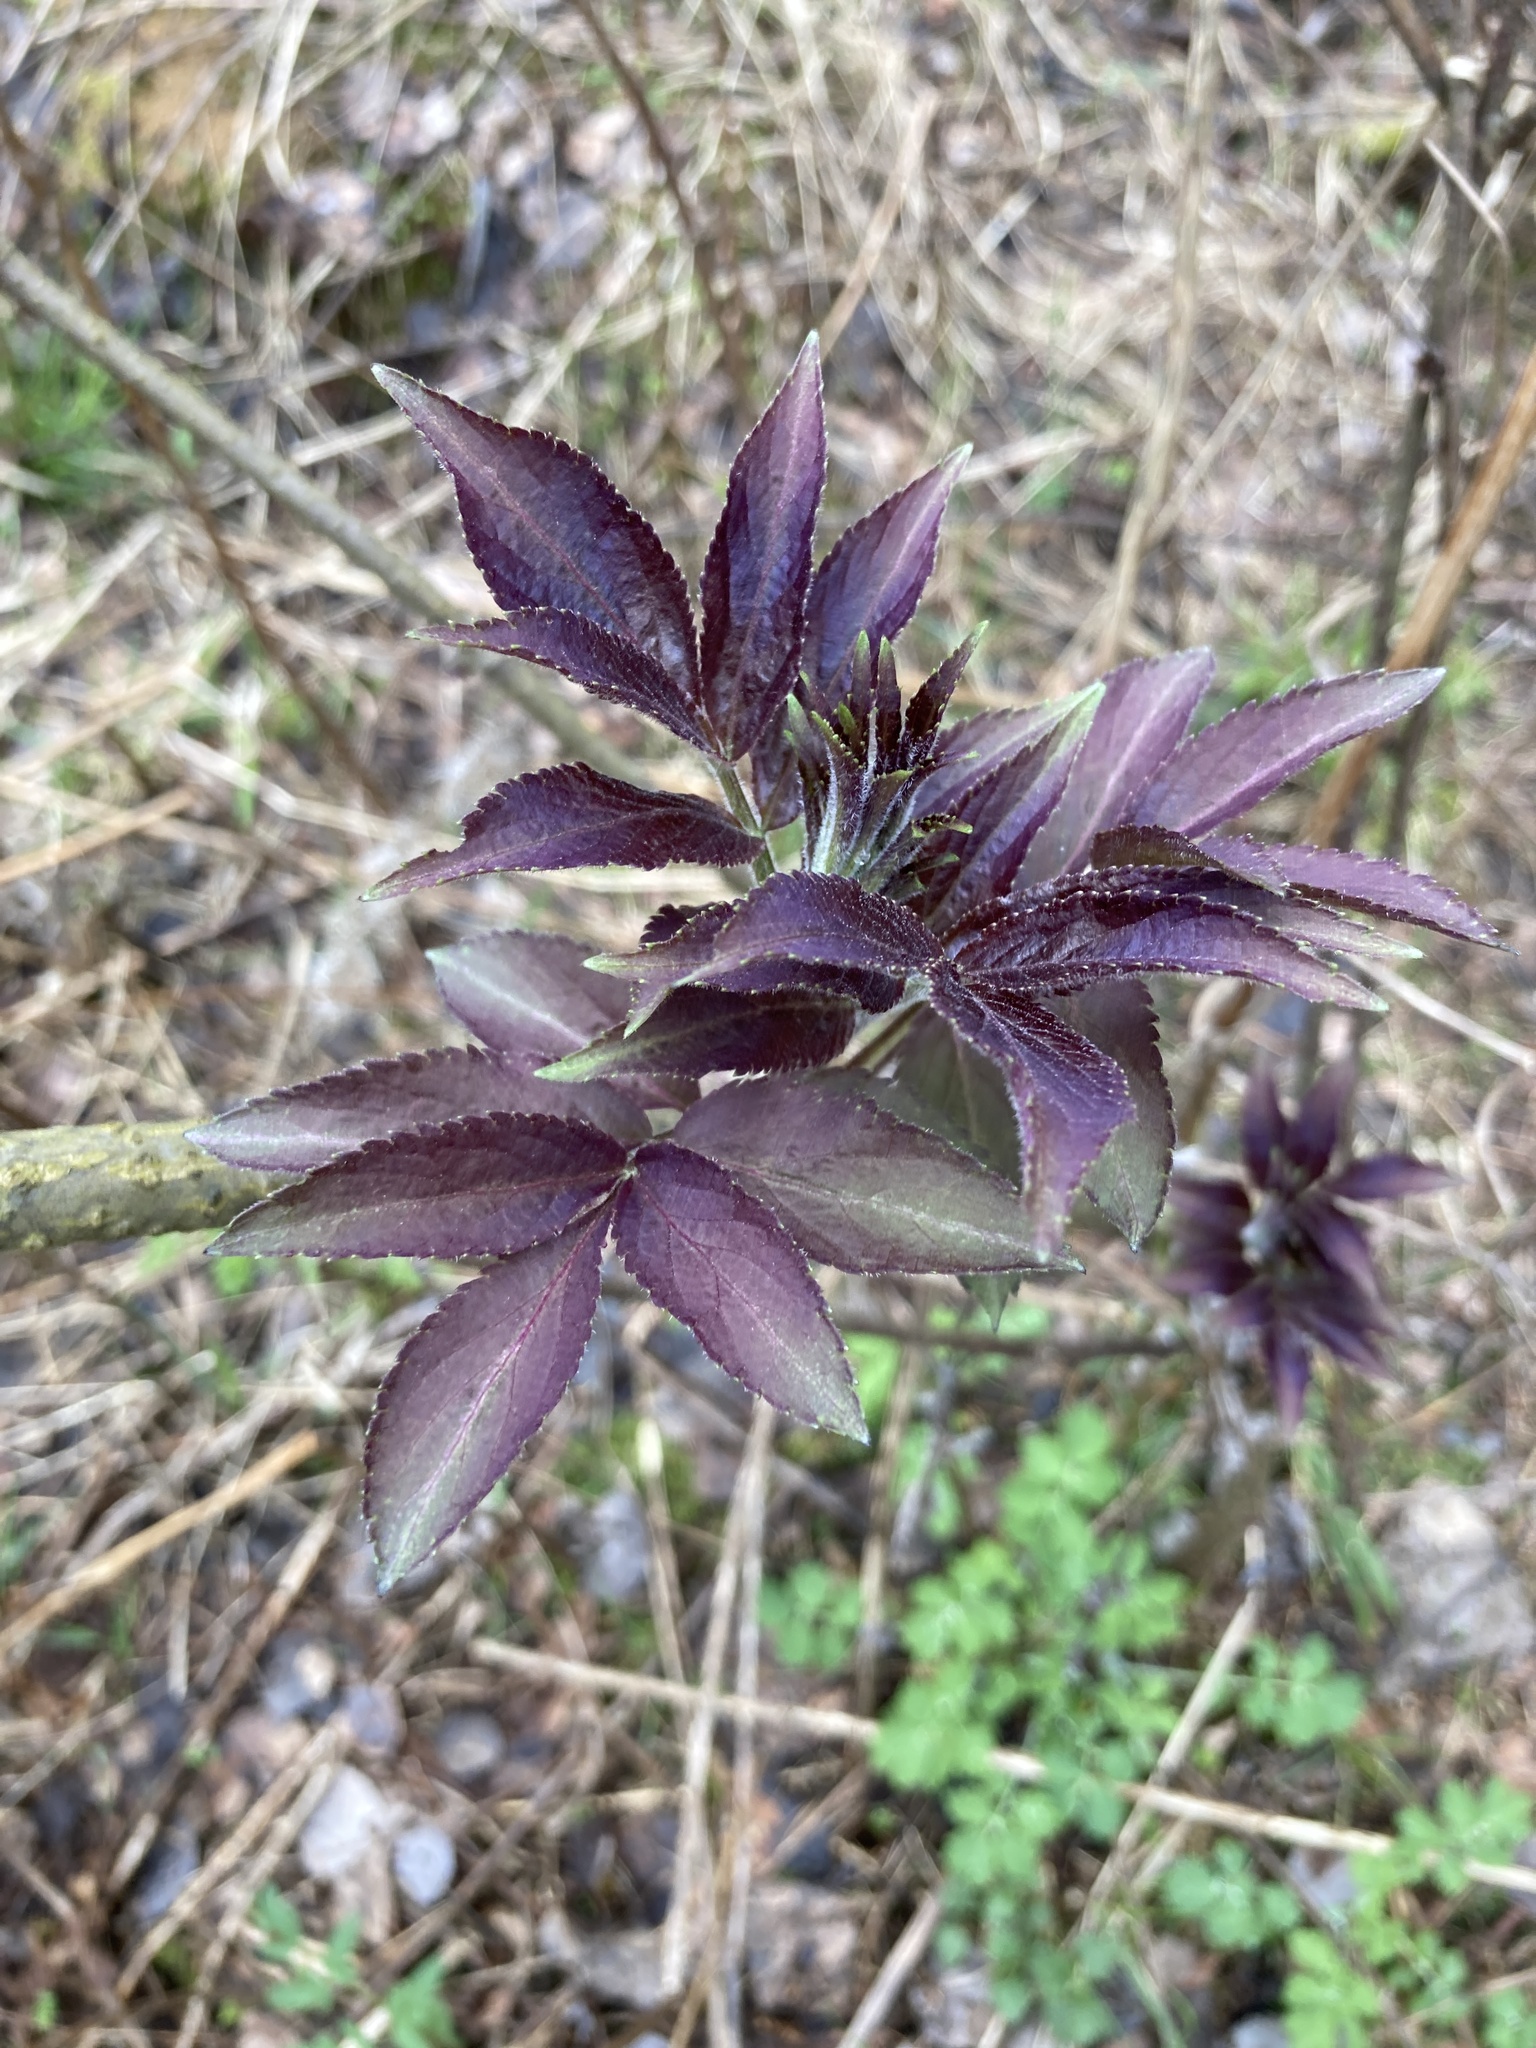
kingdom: Plantae
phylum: Tracheophyta
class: Magnoliopsida
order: Dipsacales
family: Viburnaceae
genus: Sambucus
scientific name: Sambucus racemosa
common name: Red-berried elder
